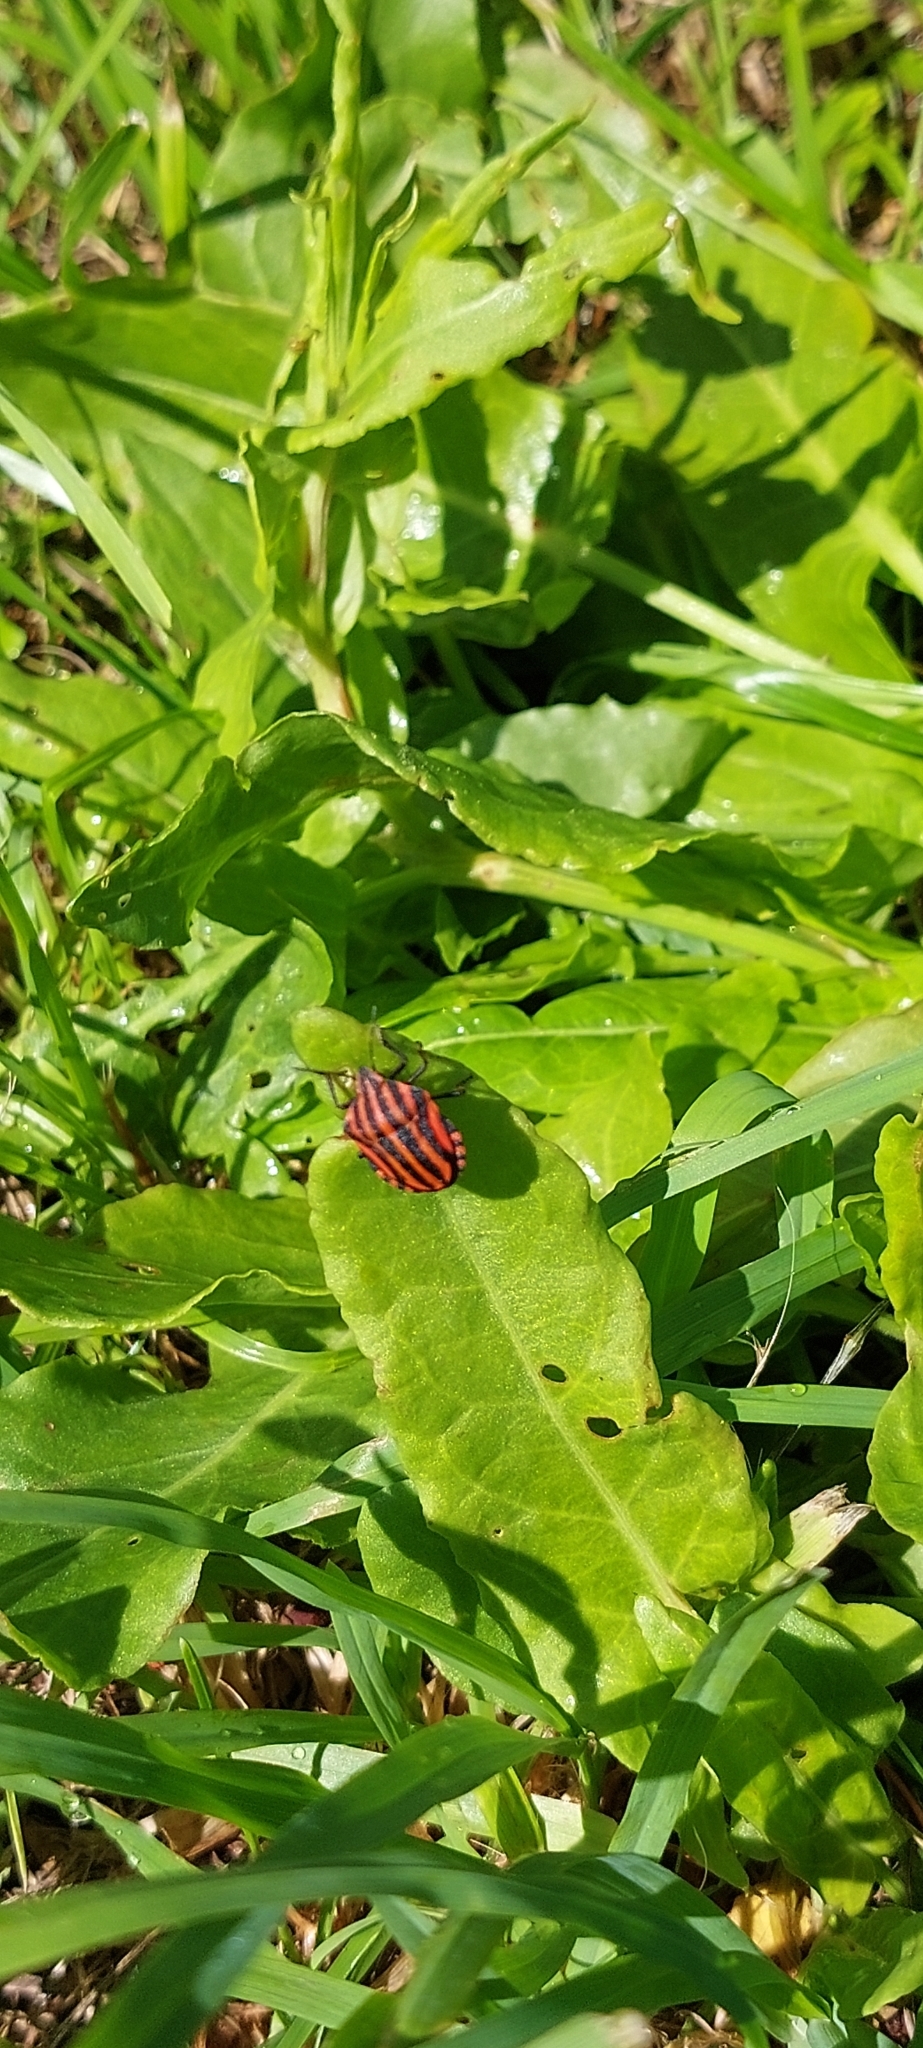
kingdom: Animalia
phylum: Arthropoda
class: Insecta
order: Hemiptera
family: Pentatomidae
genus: Graphosoma
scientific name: Graphosoma italicum
